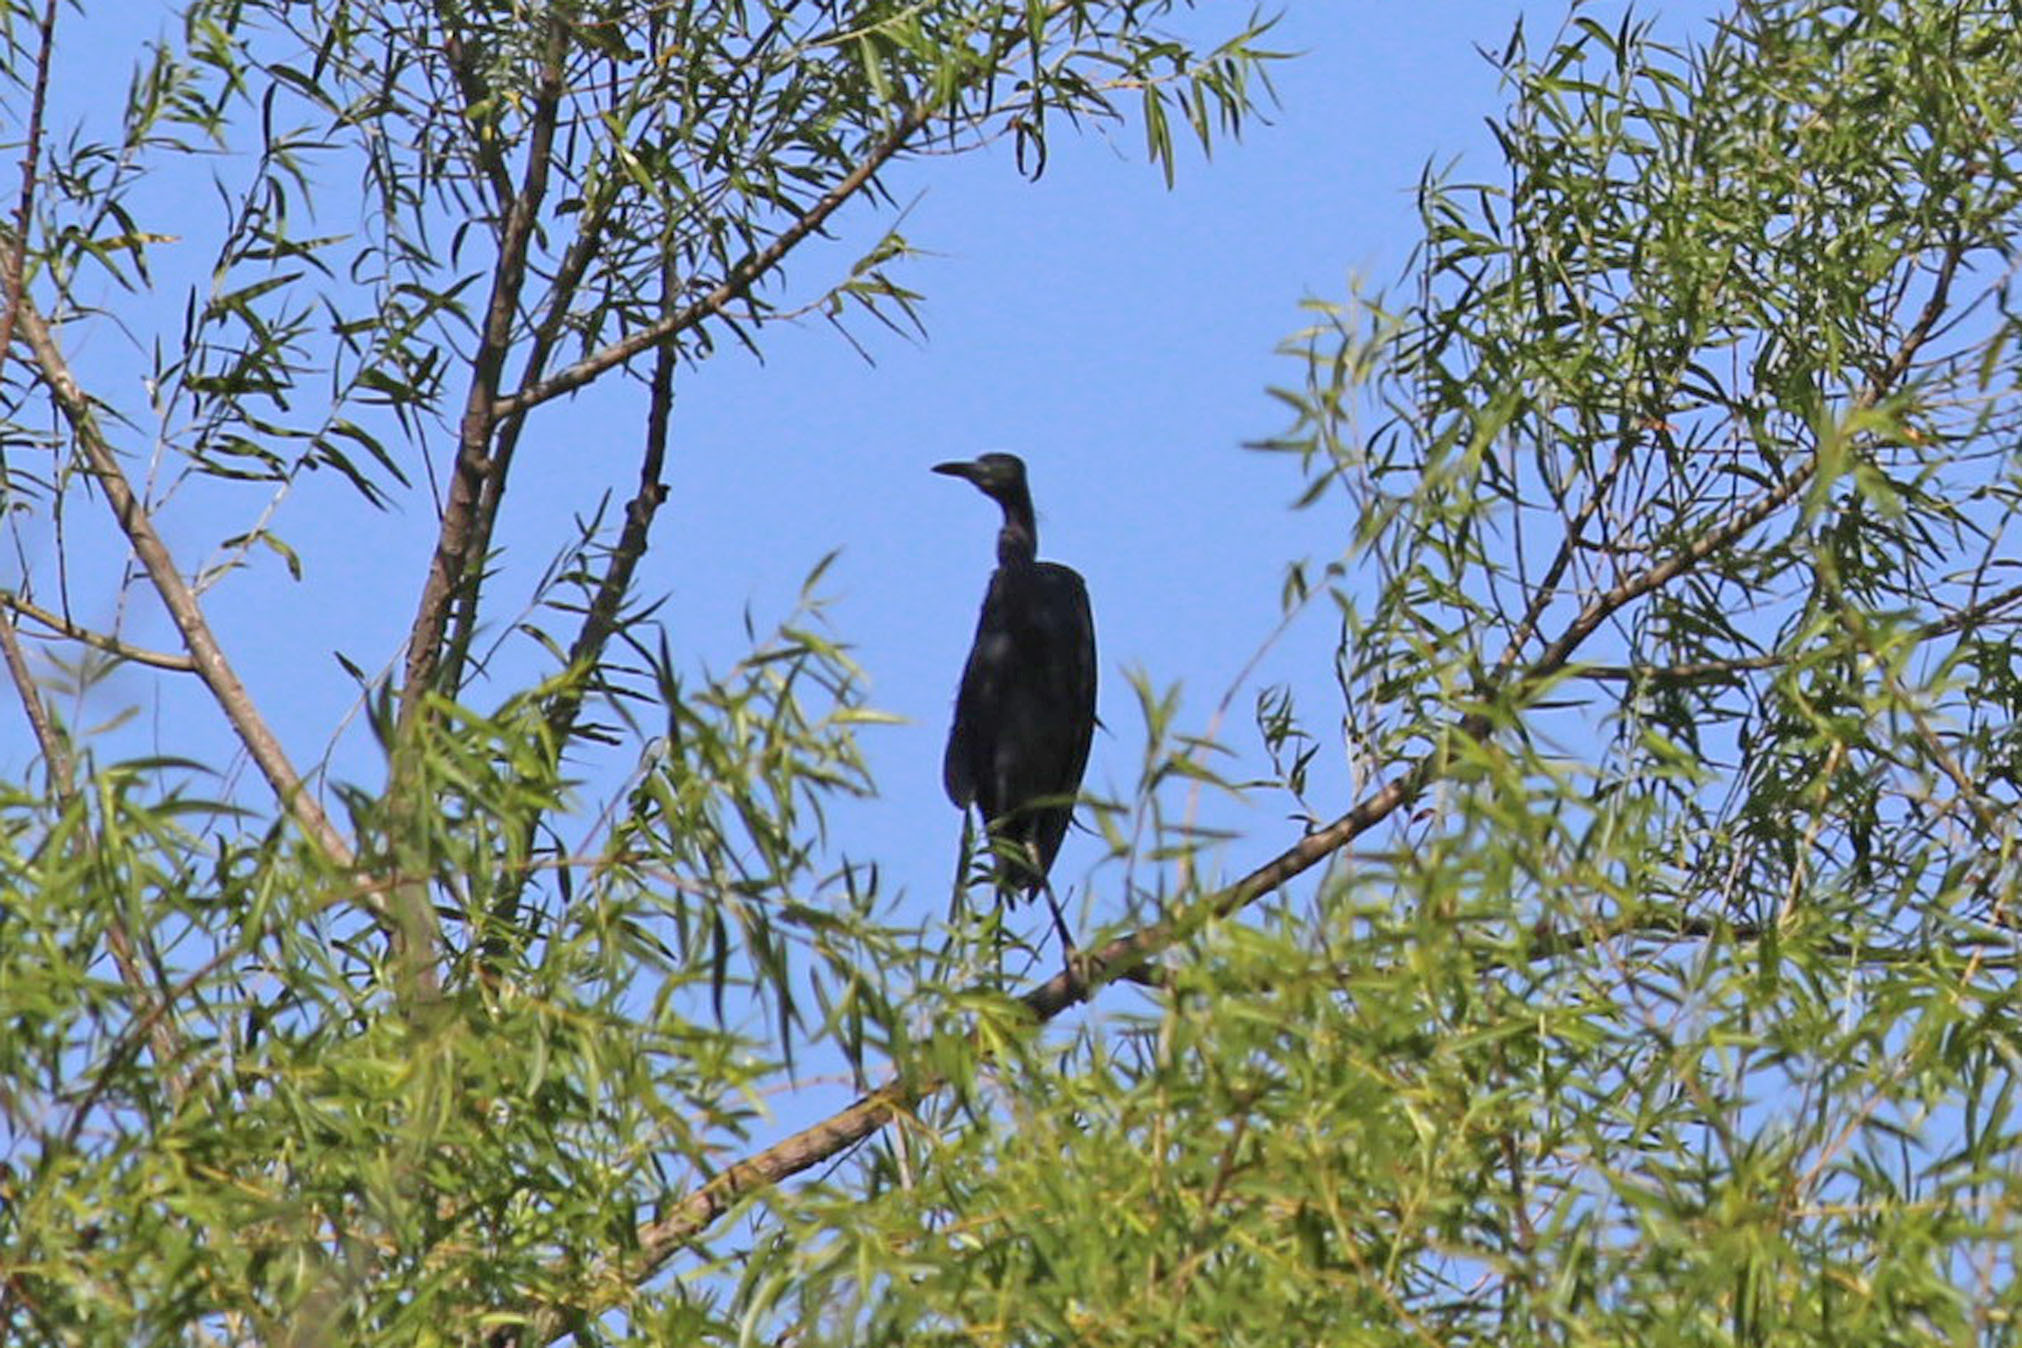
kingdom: Animalia
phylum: Chordata
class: Aves
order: Pelecaniformes
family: Ardeidae
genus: Egretta
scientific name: Egretta caerulea
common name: Little blue heron
